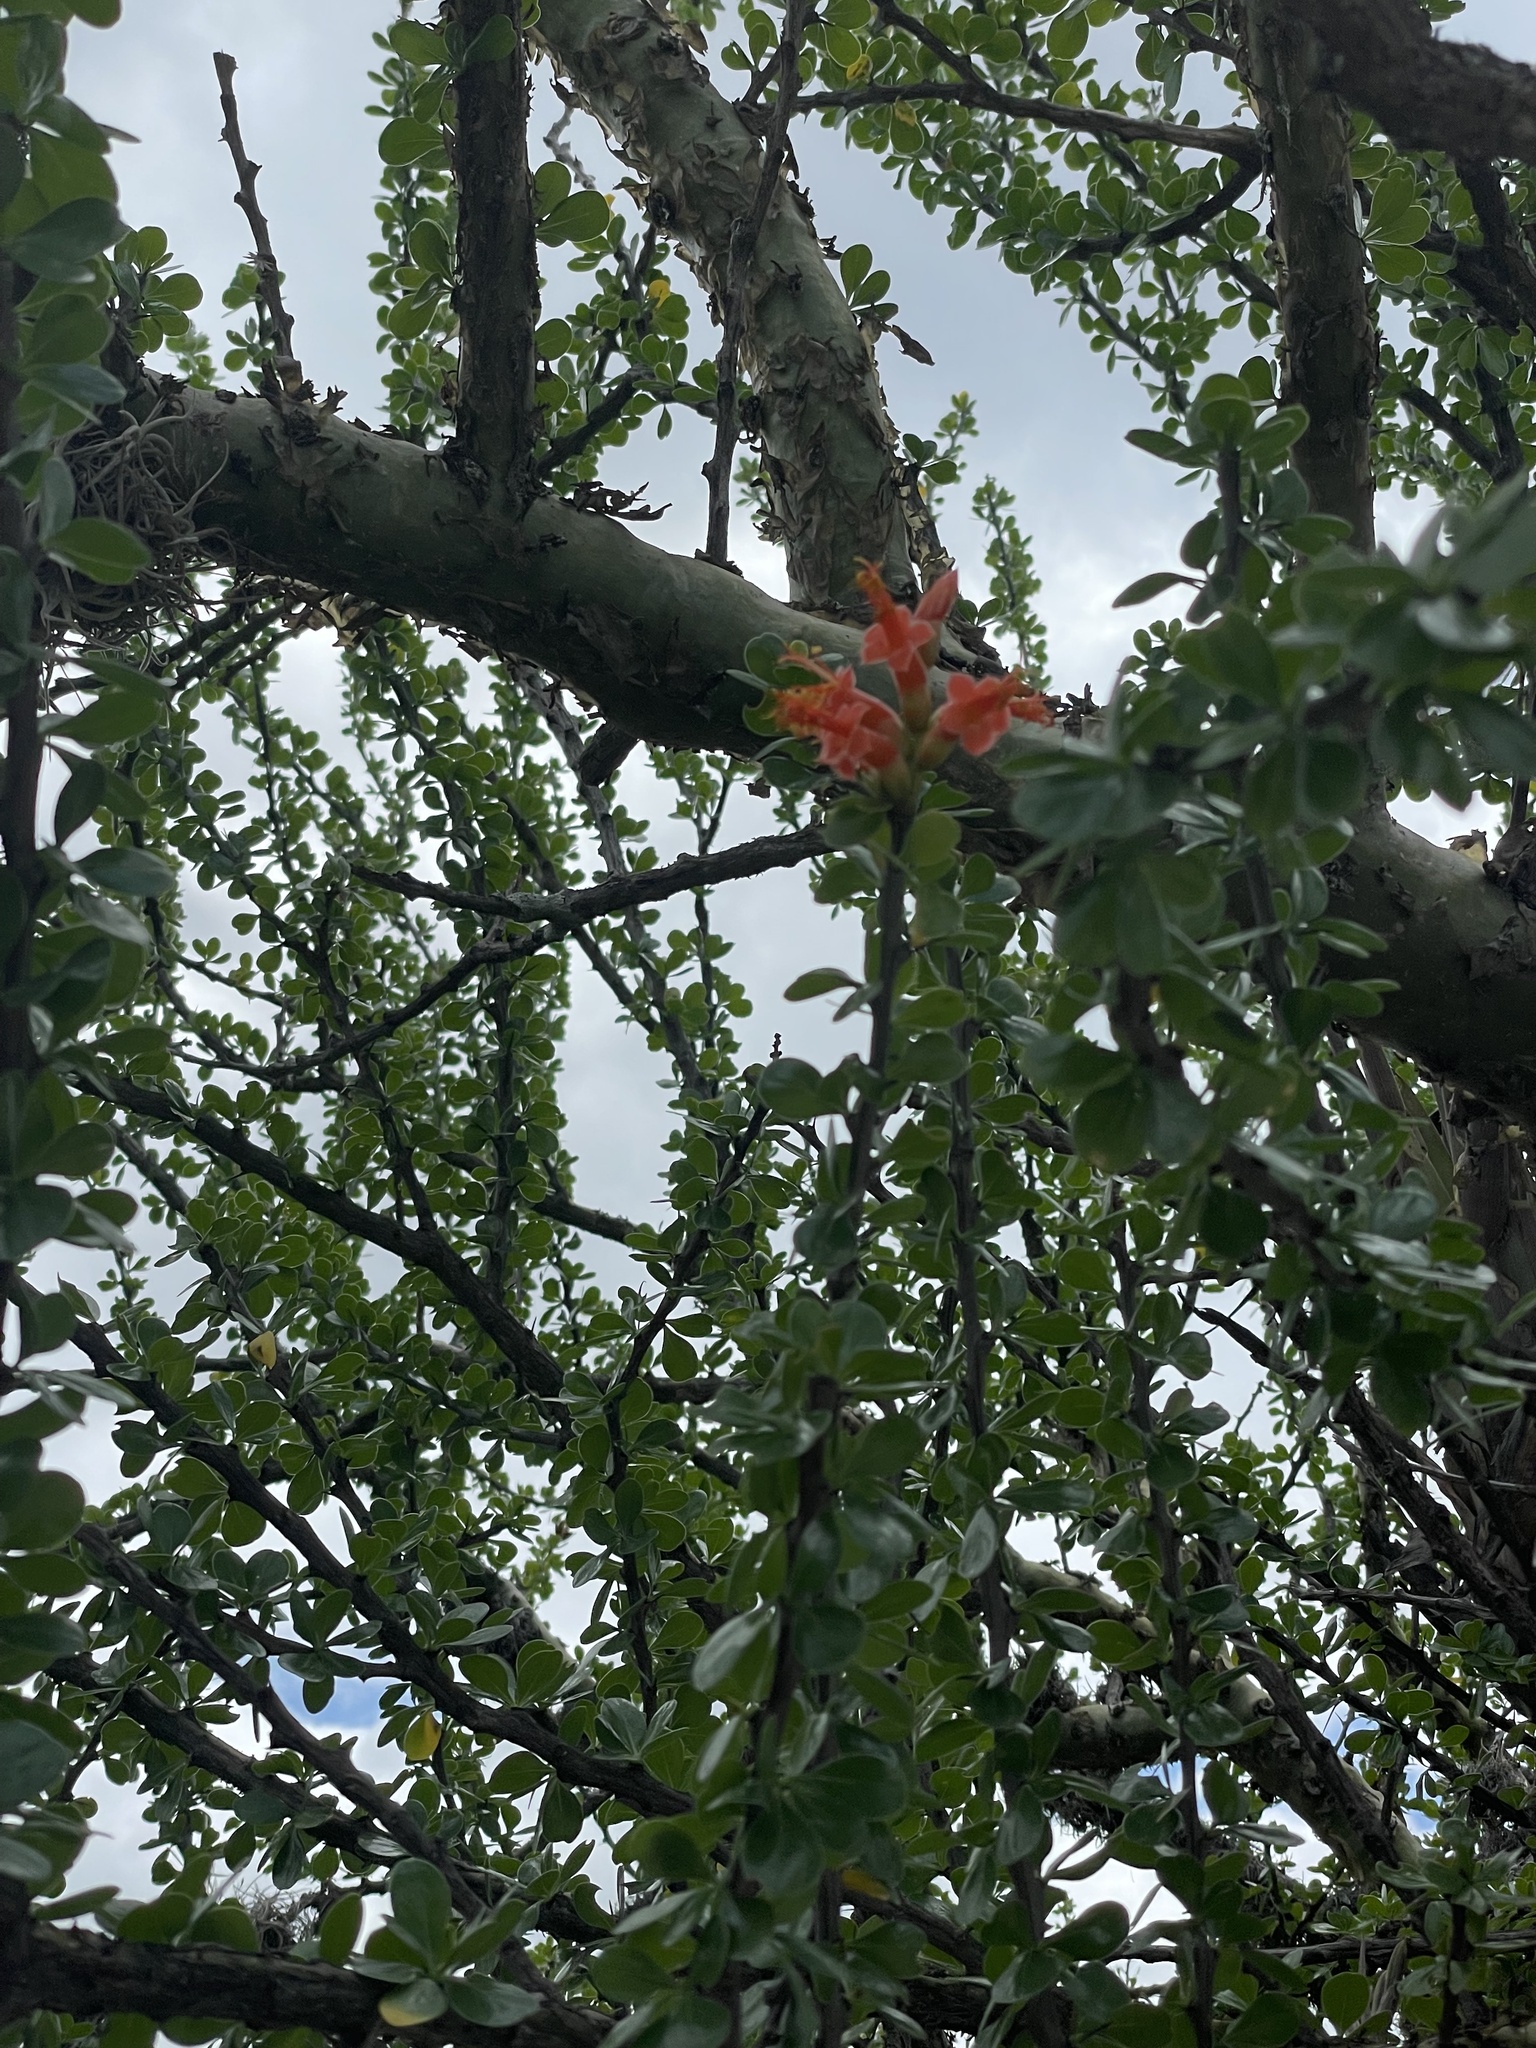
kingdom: Plantae
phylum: Tracheophyta
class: Magnoliopsida
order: Ericales
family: Fouquieriaceae
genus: Fouquieria
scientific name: Fouquieria formosa
